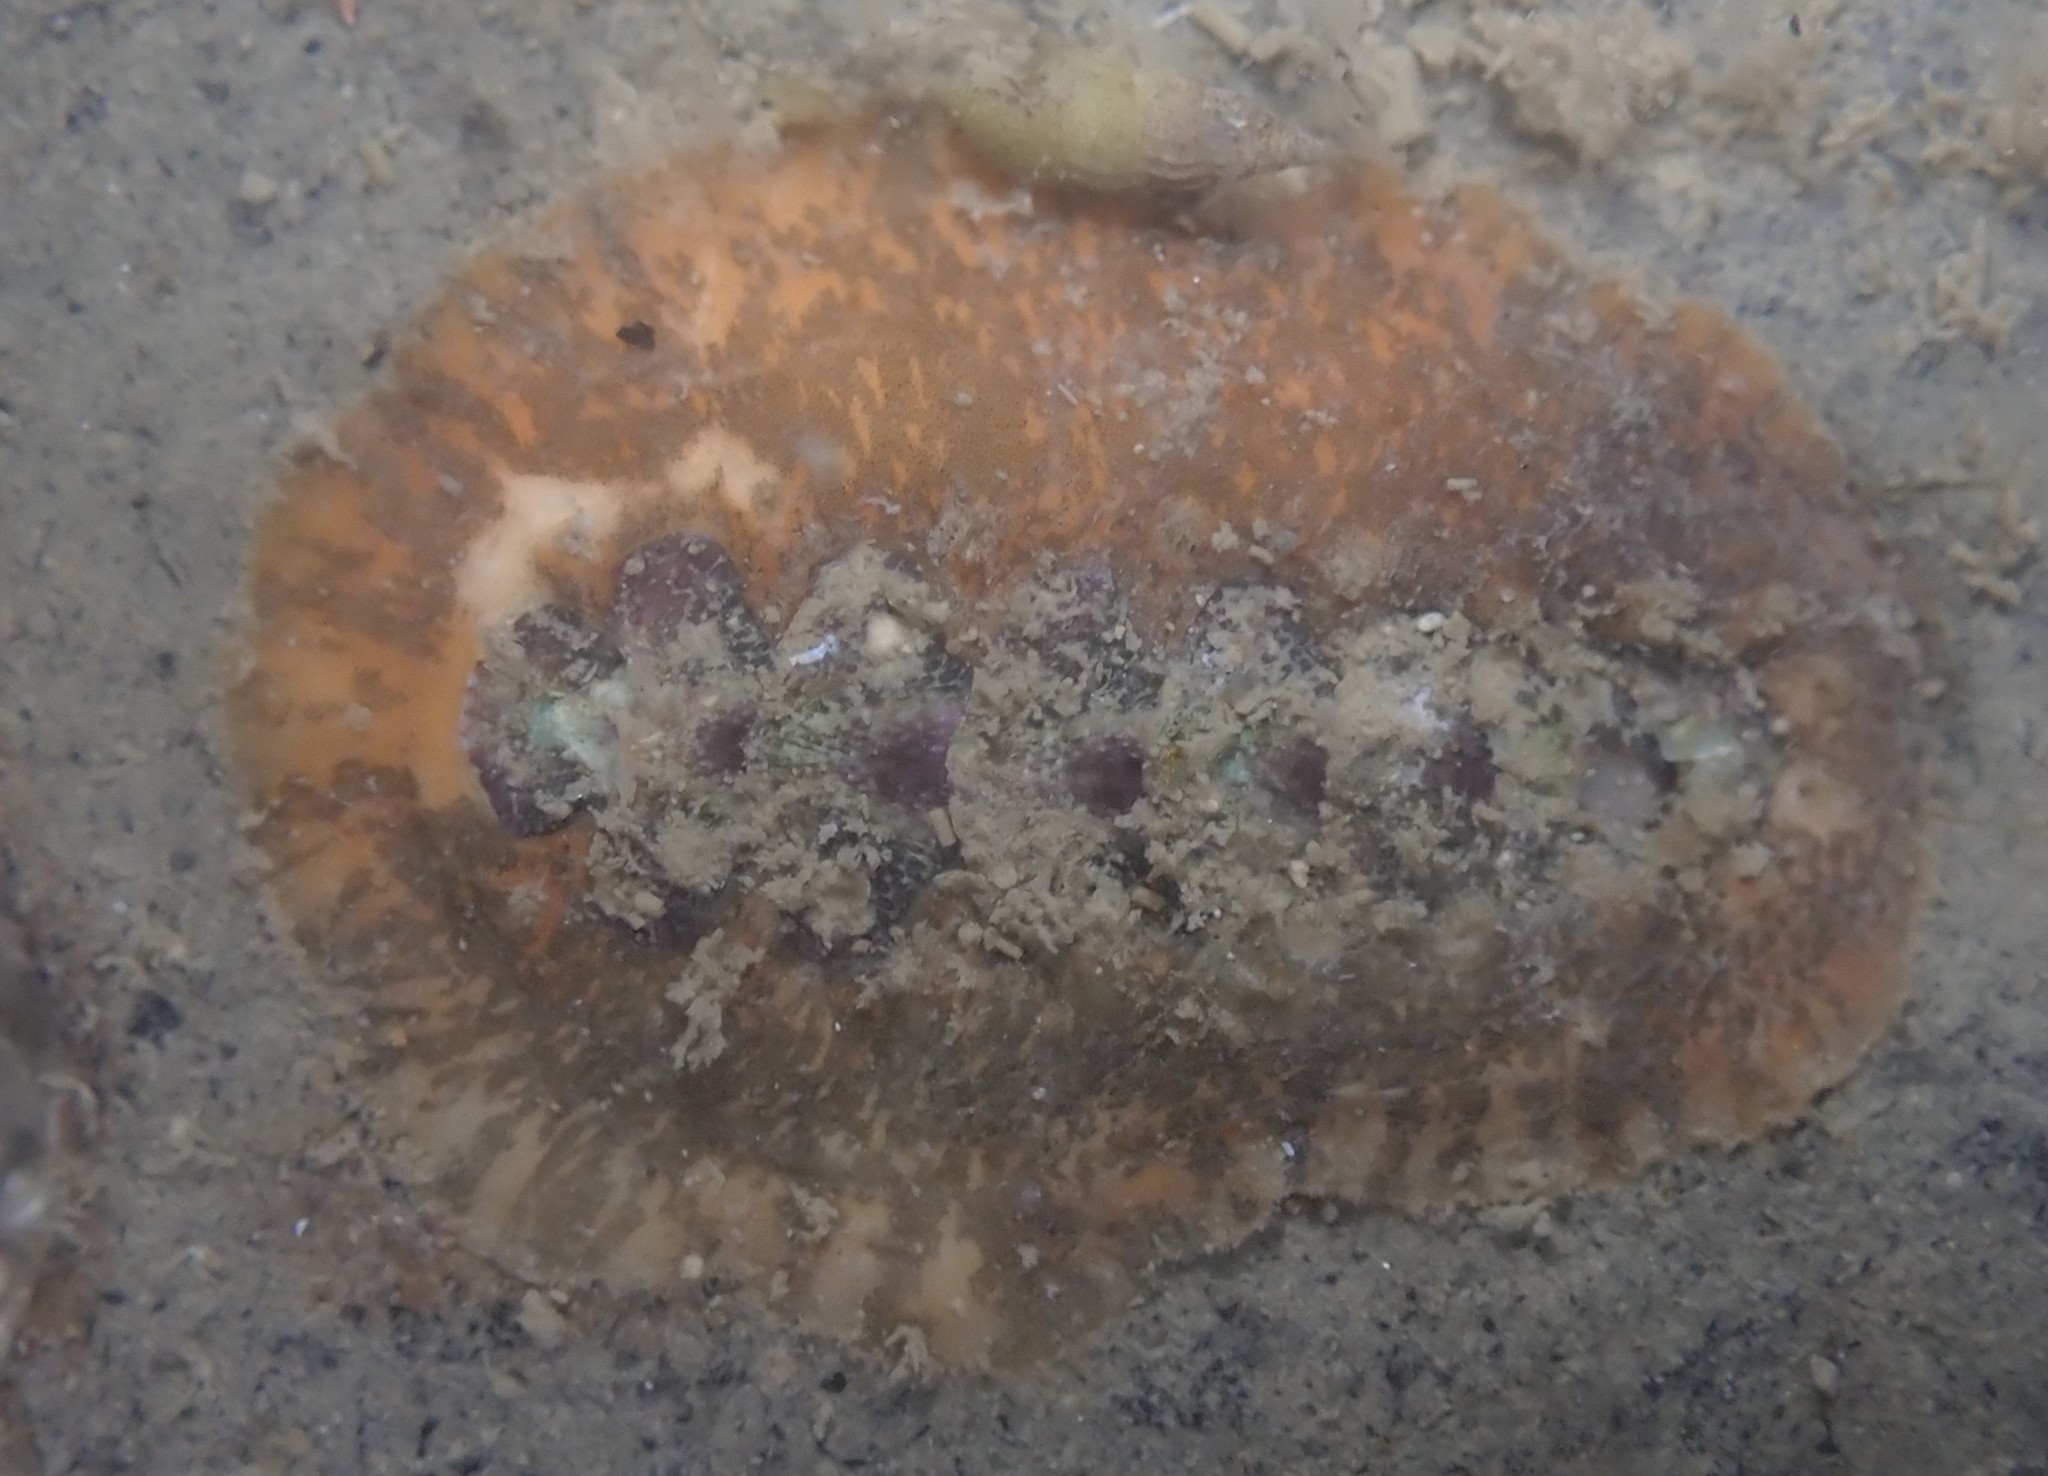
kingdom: Animalia
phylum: Mollusca
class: Polyplacophora
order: Chitonida
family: Acanthochitonidae
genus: Notoplax
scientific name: Notoplax violacea
